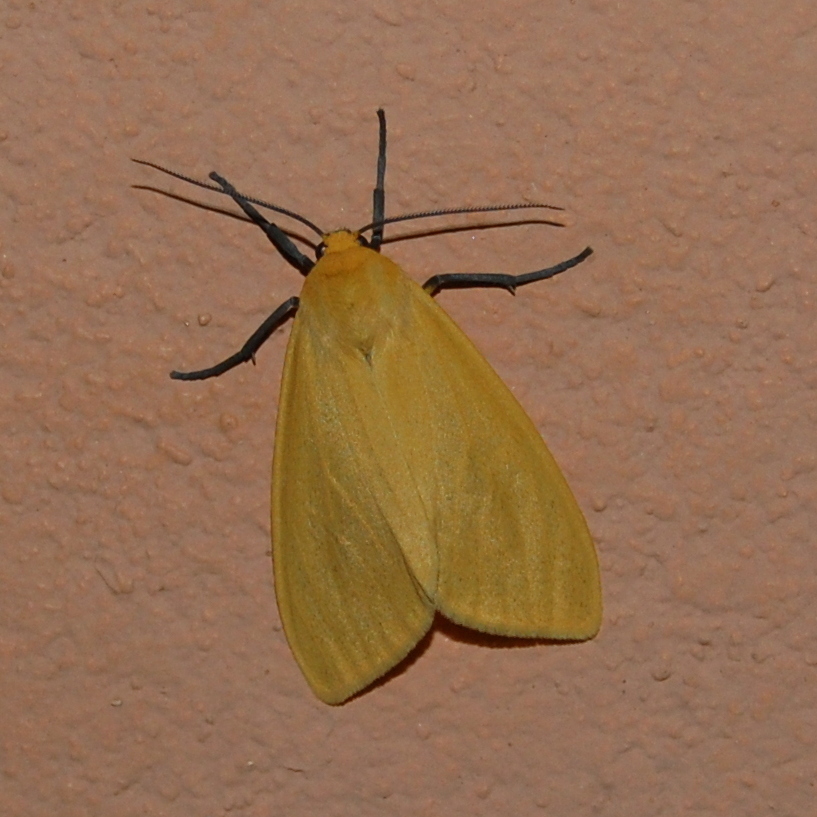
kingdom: Animalia
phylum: Arthropoda
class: Insecta
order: Lepidoptera
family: Erebidae
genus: Pareuchaetes
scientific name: Pareuchaetes aurata
